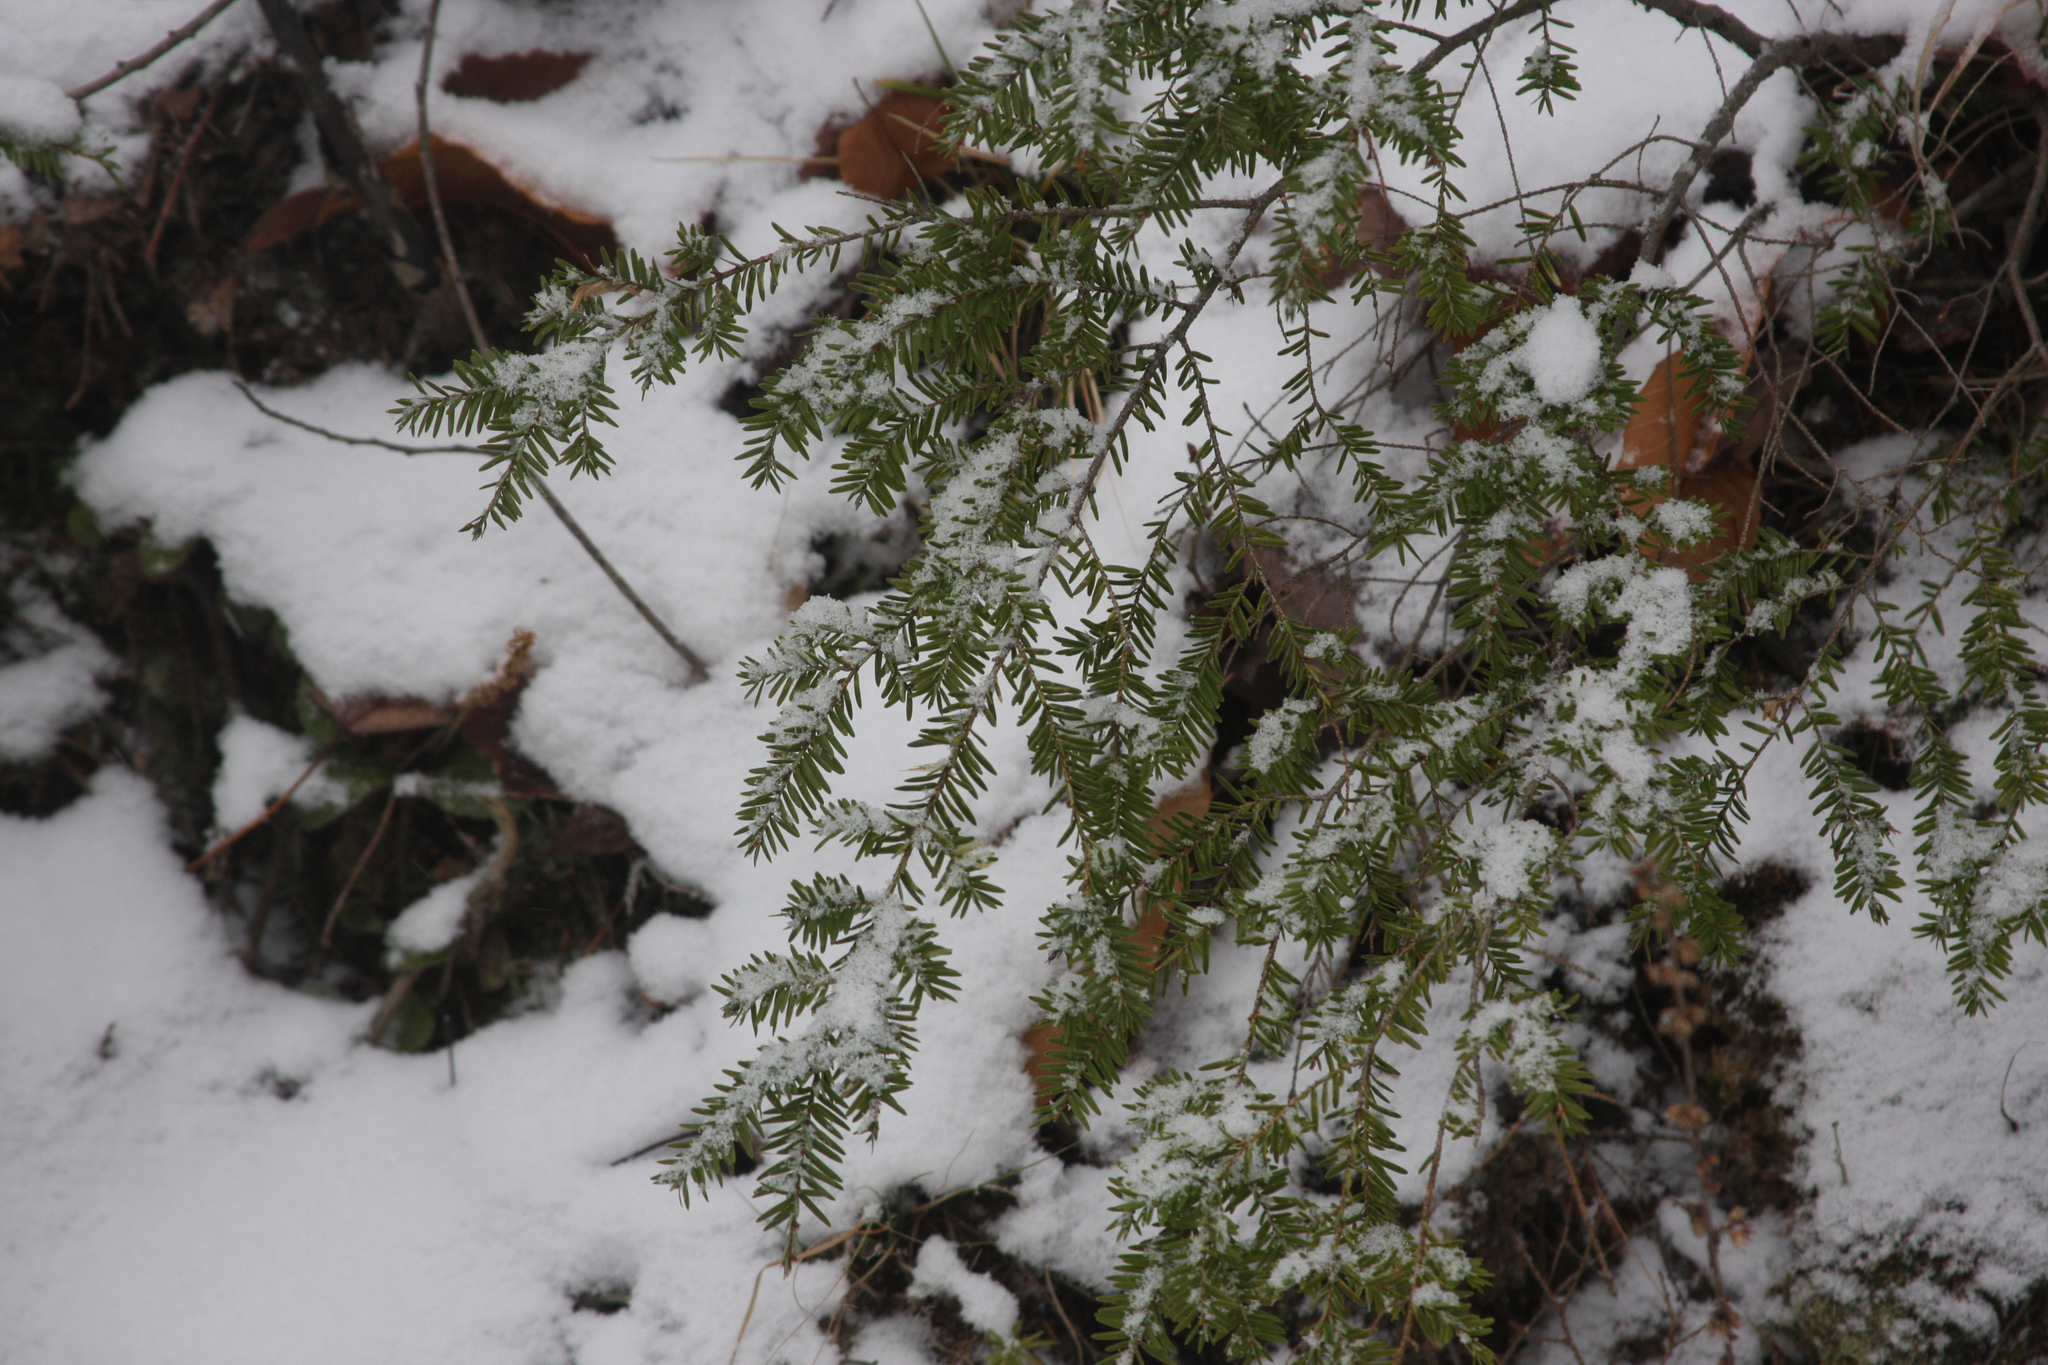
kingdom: Plantae
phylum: Tracheophyta
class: Pinopsida
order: Pinales
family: Pinaceae
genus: Tsuga
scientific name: Tsuga canadensis
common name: Eastern hemlock
